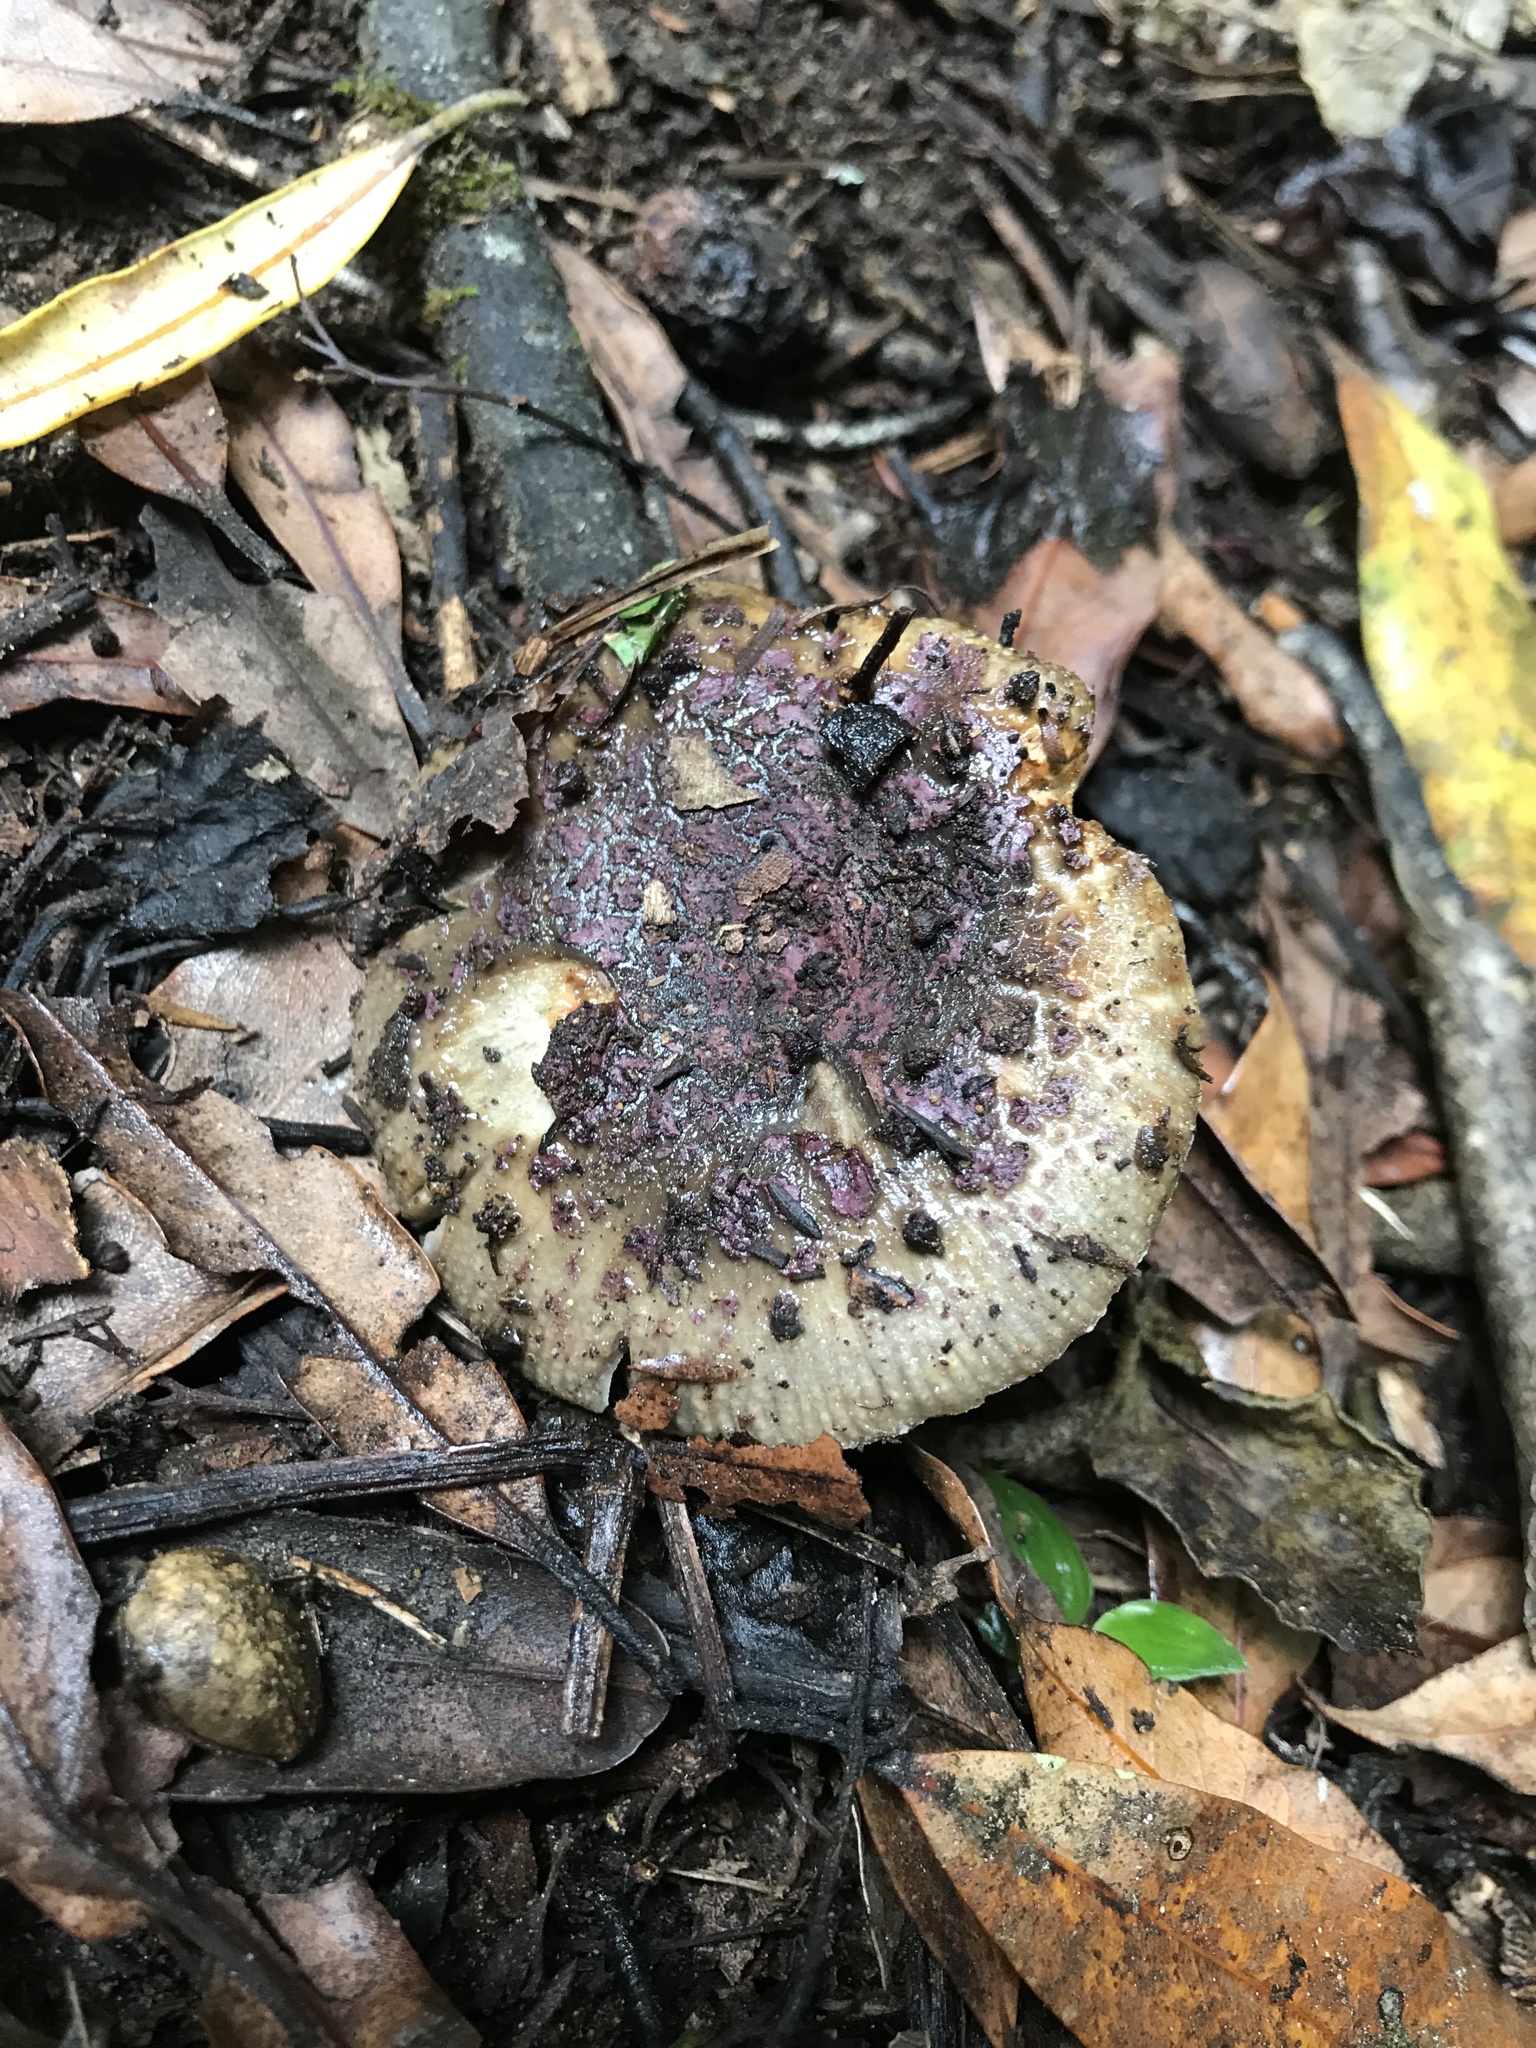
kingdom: Fungi
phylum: Basidiomycota
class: Agaricomycetes
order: Russulales
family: Russulaceae
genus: Russula
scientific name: Russula vinaceocuticulata
